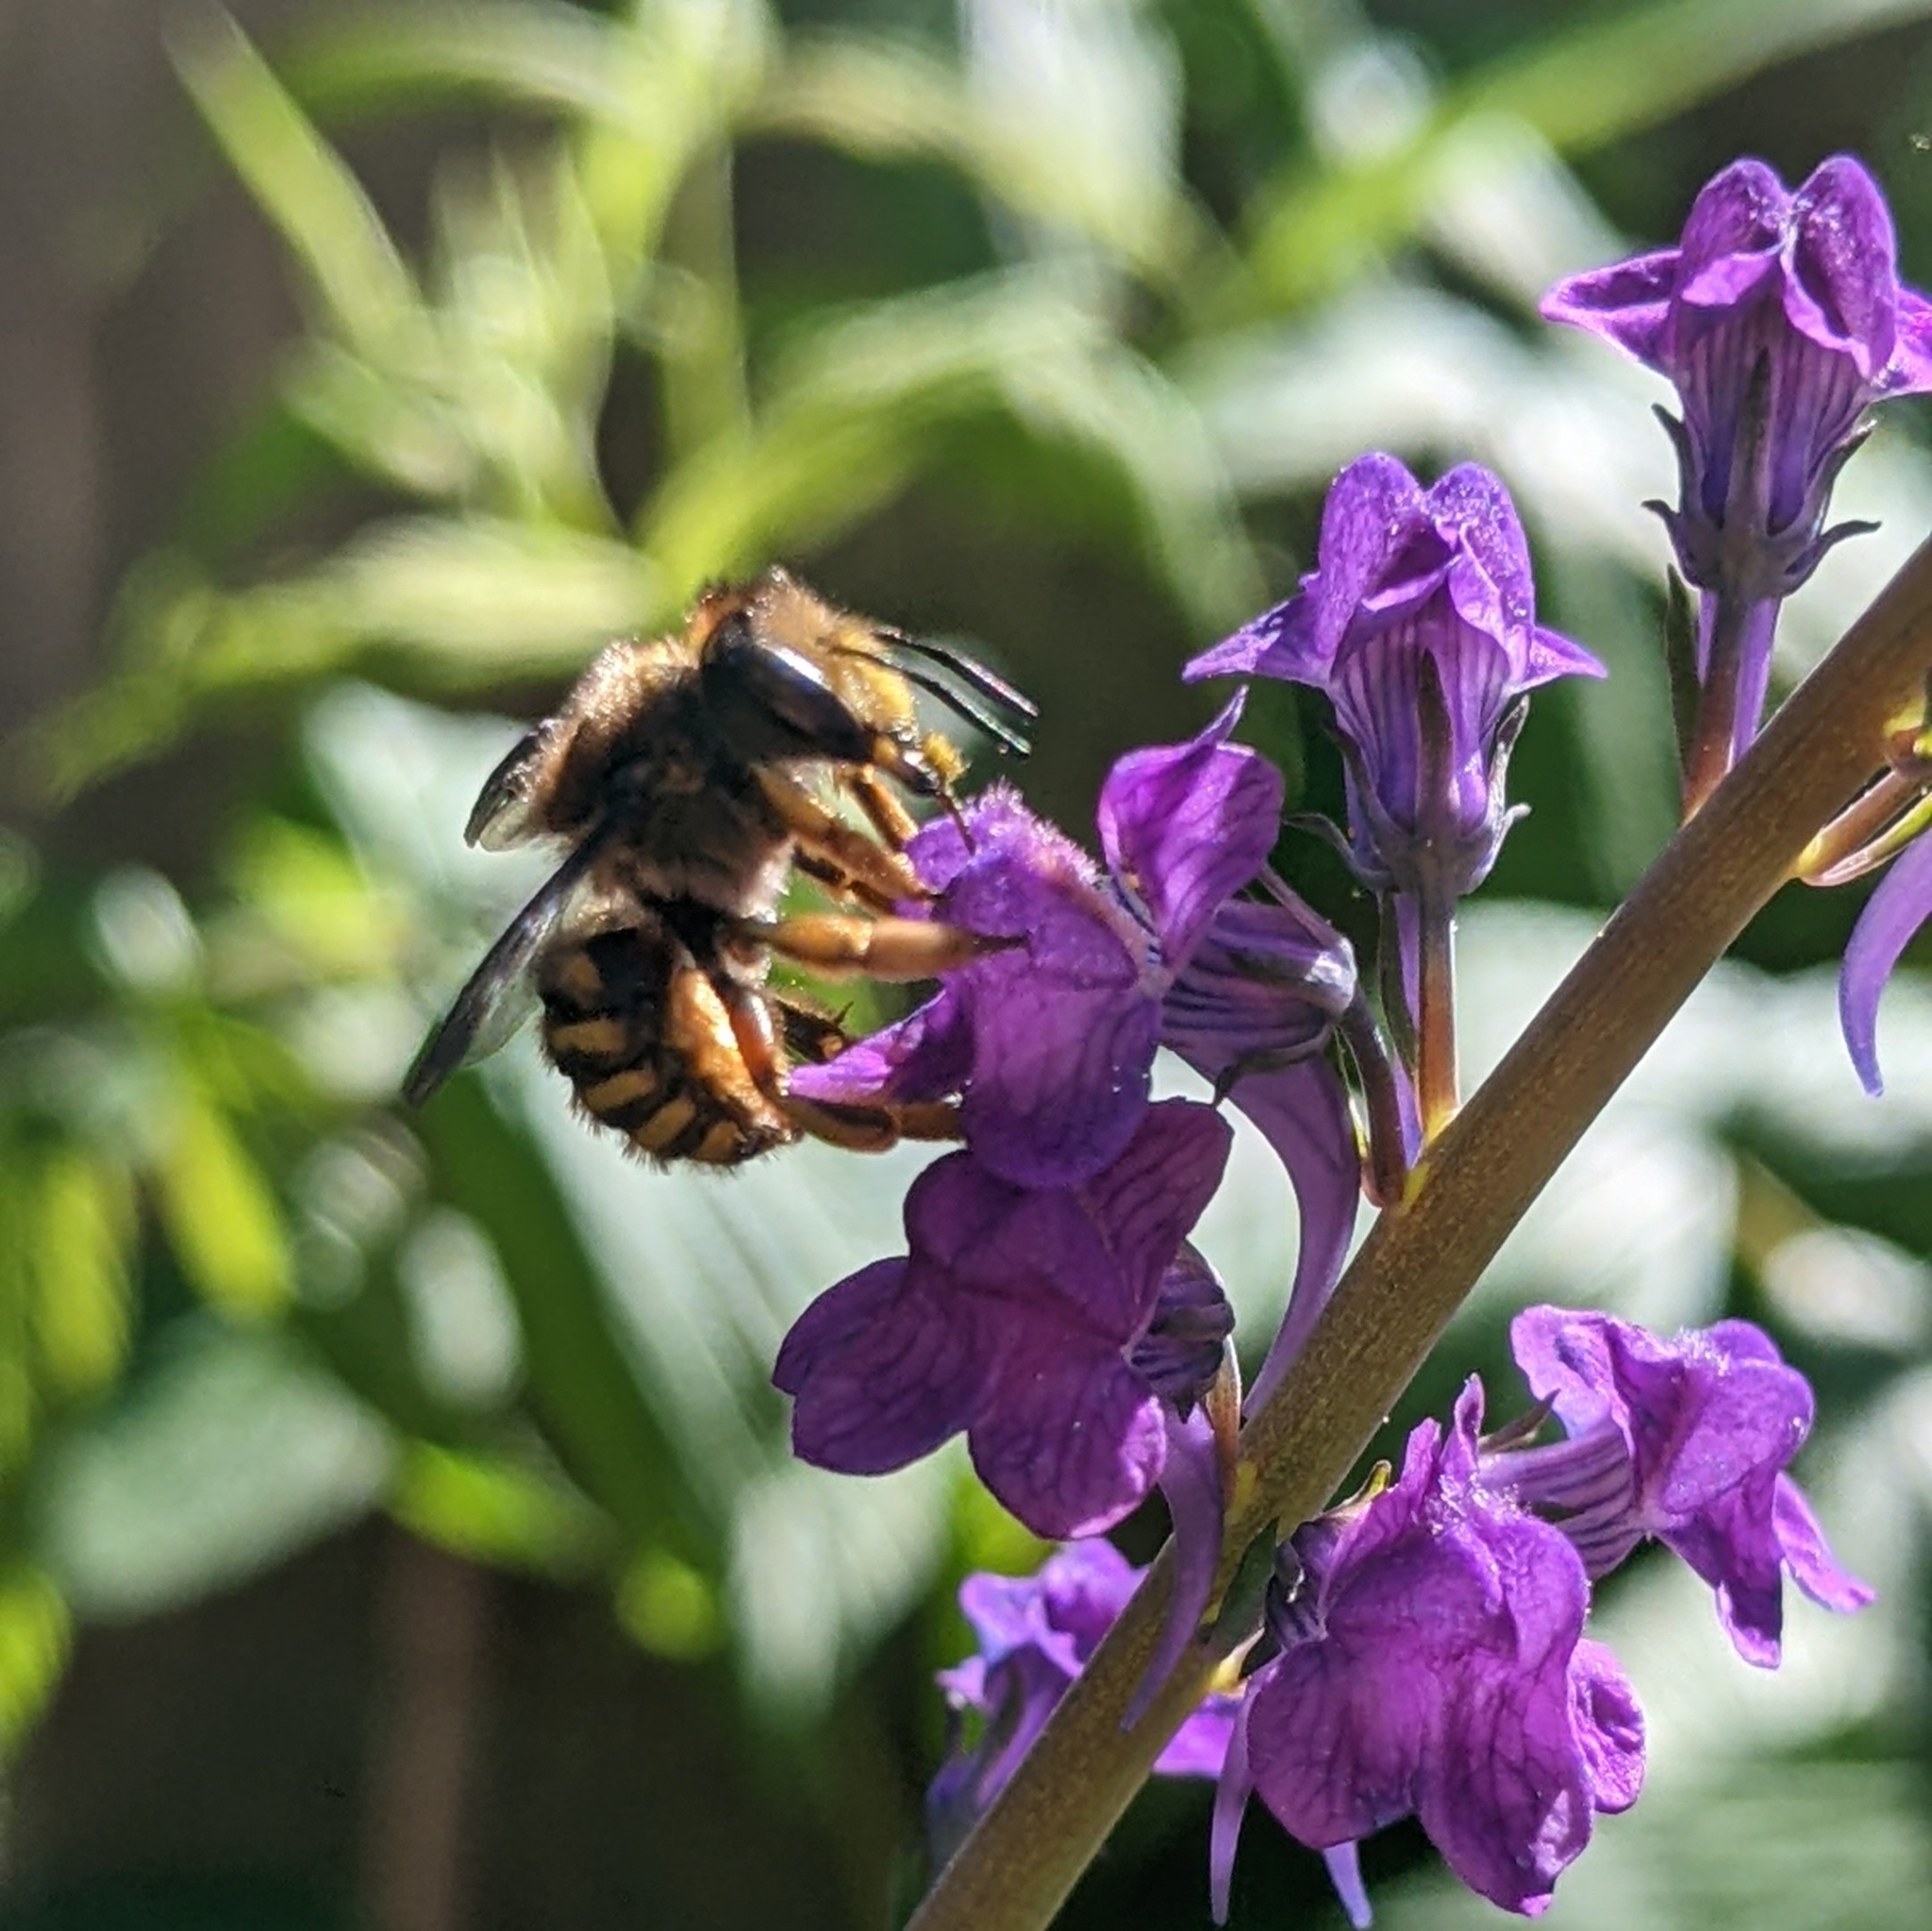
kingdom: Animalia
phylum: Arthropoda
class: Insecta
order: Hymenoptera
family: Megachilidae
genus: Anthidium
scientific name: Anthidium manicatum
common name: Wool carder bee
